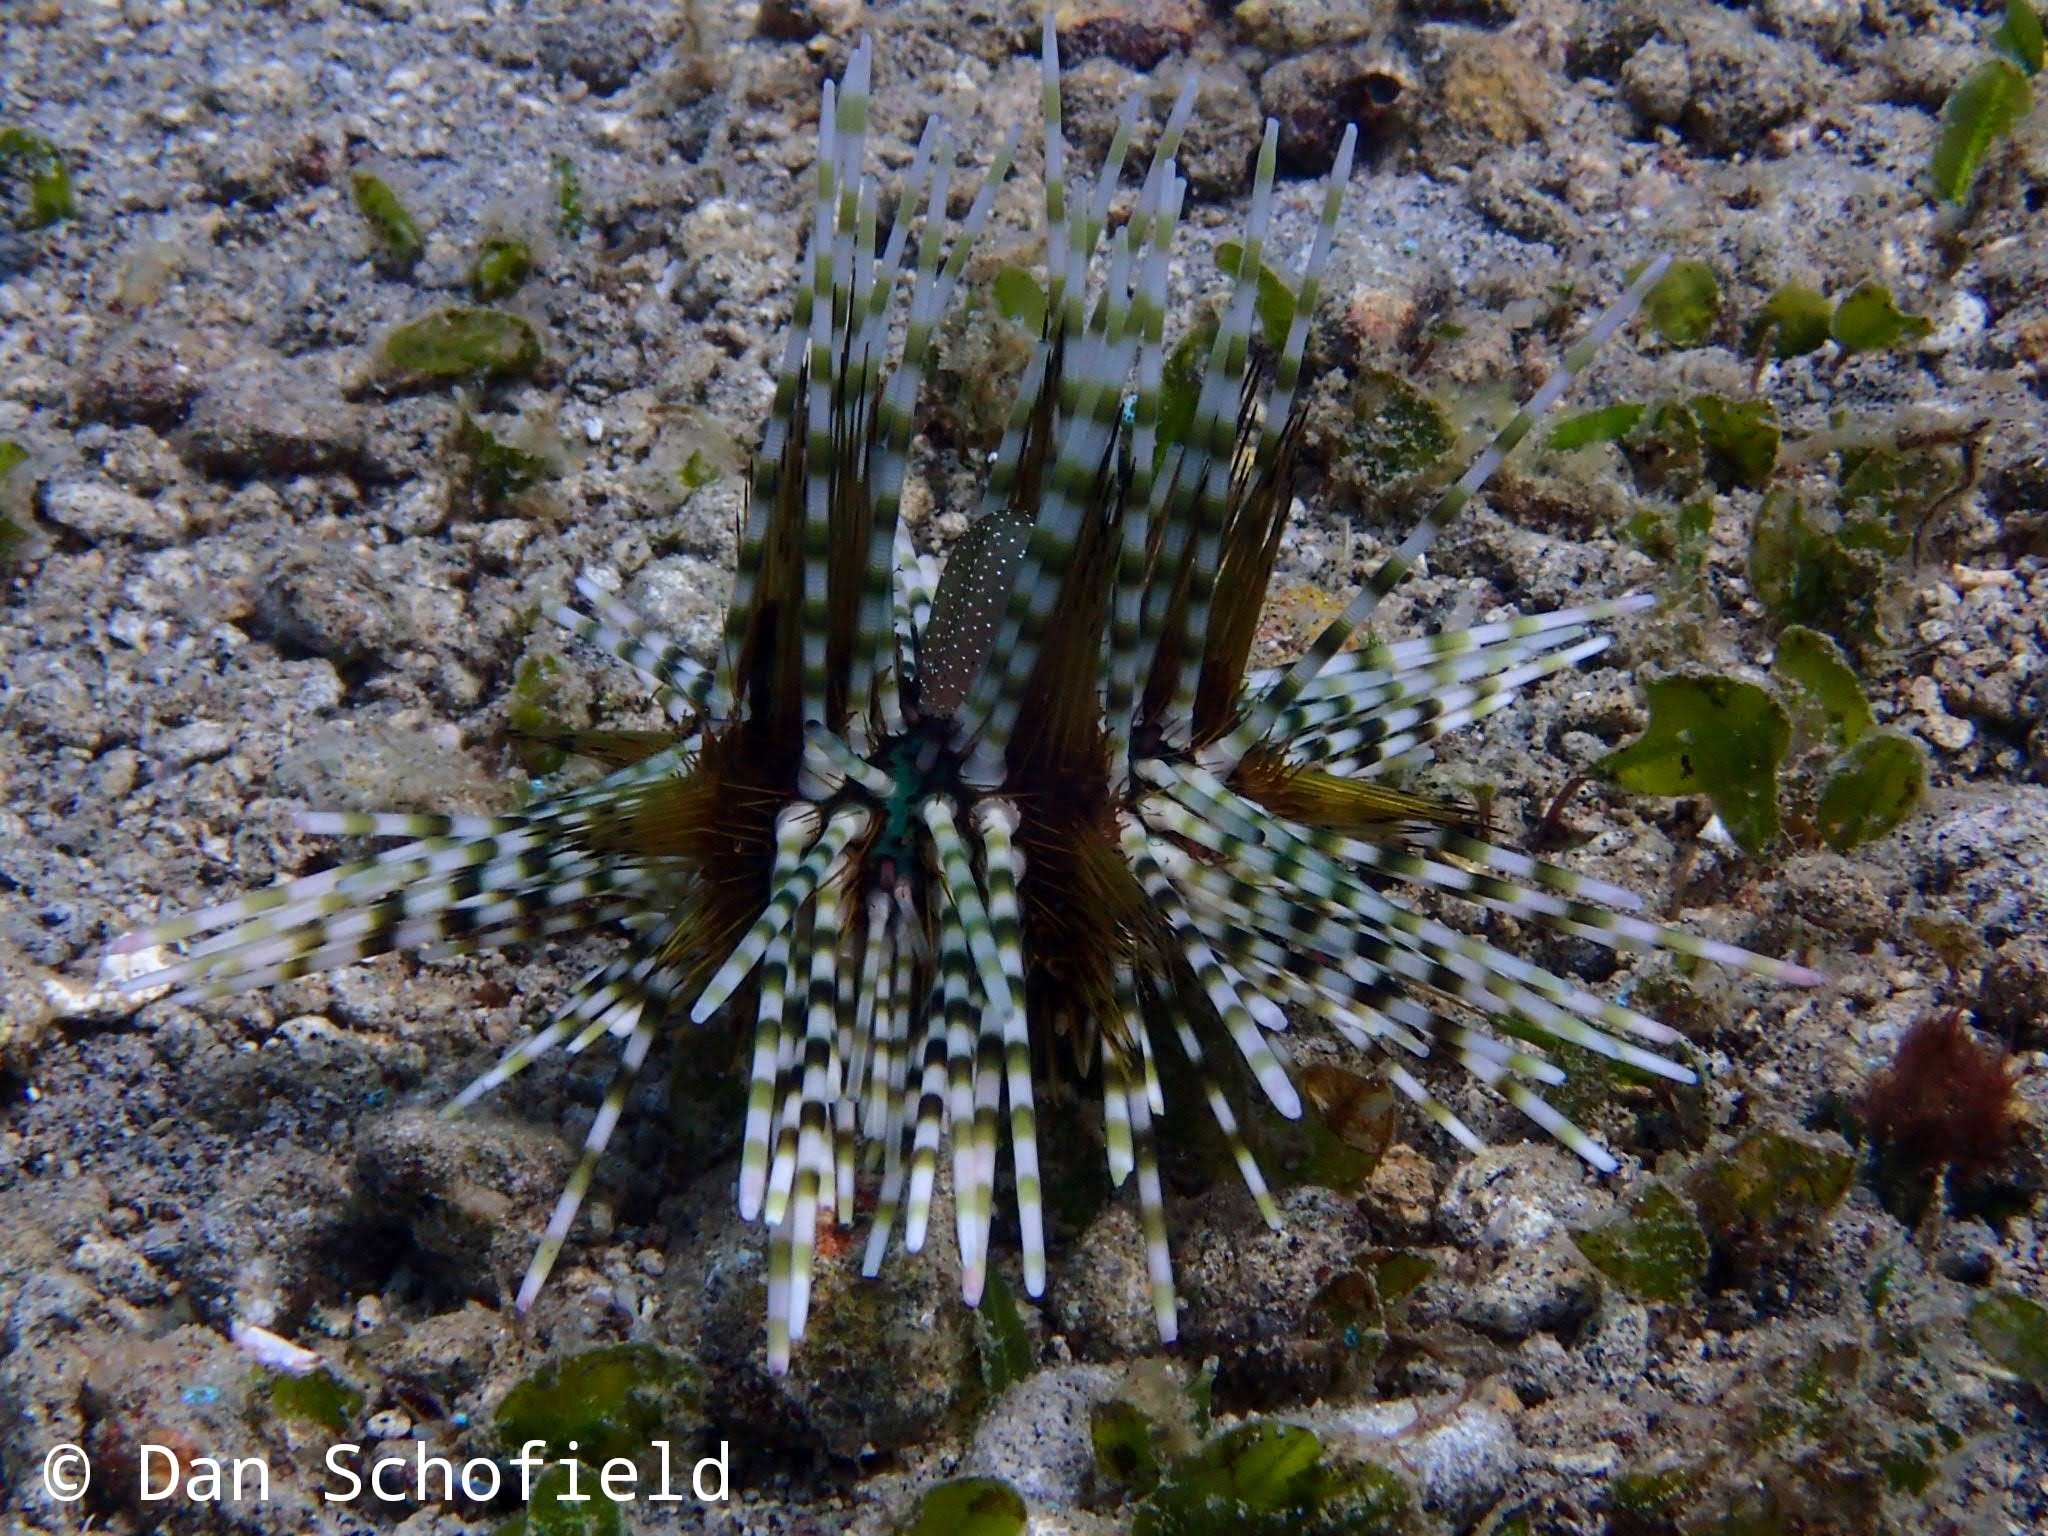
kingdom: Animalia
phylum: Echinodermata
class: Echinoidea
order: Diadematoida
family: Diadematidae
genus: Echinothrix
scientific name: Echinothrix calamaris
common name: Banded sea urchin
